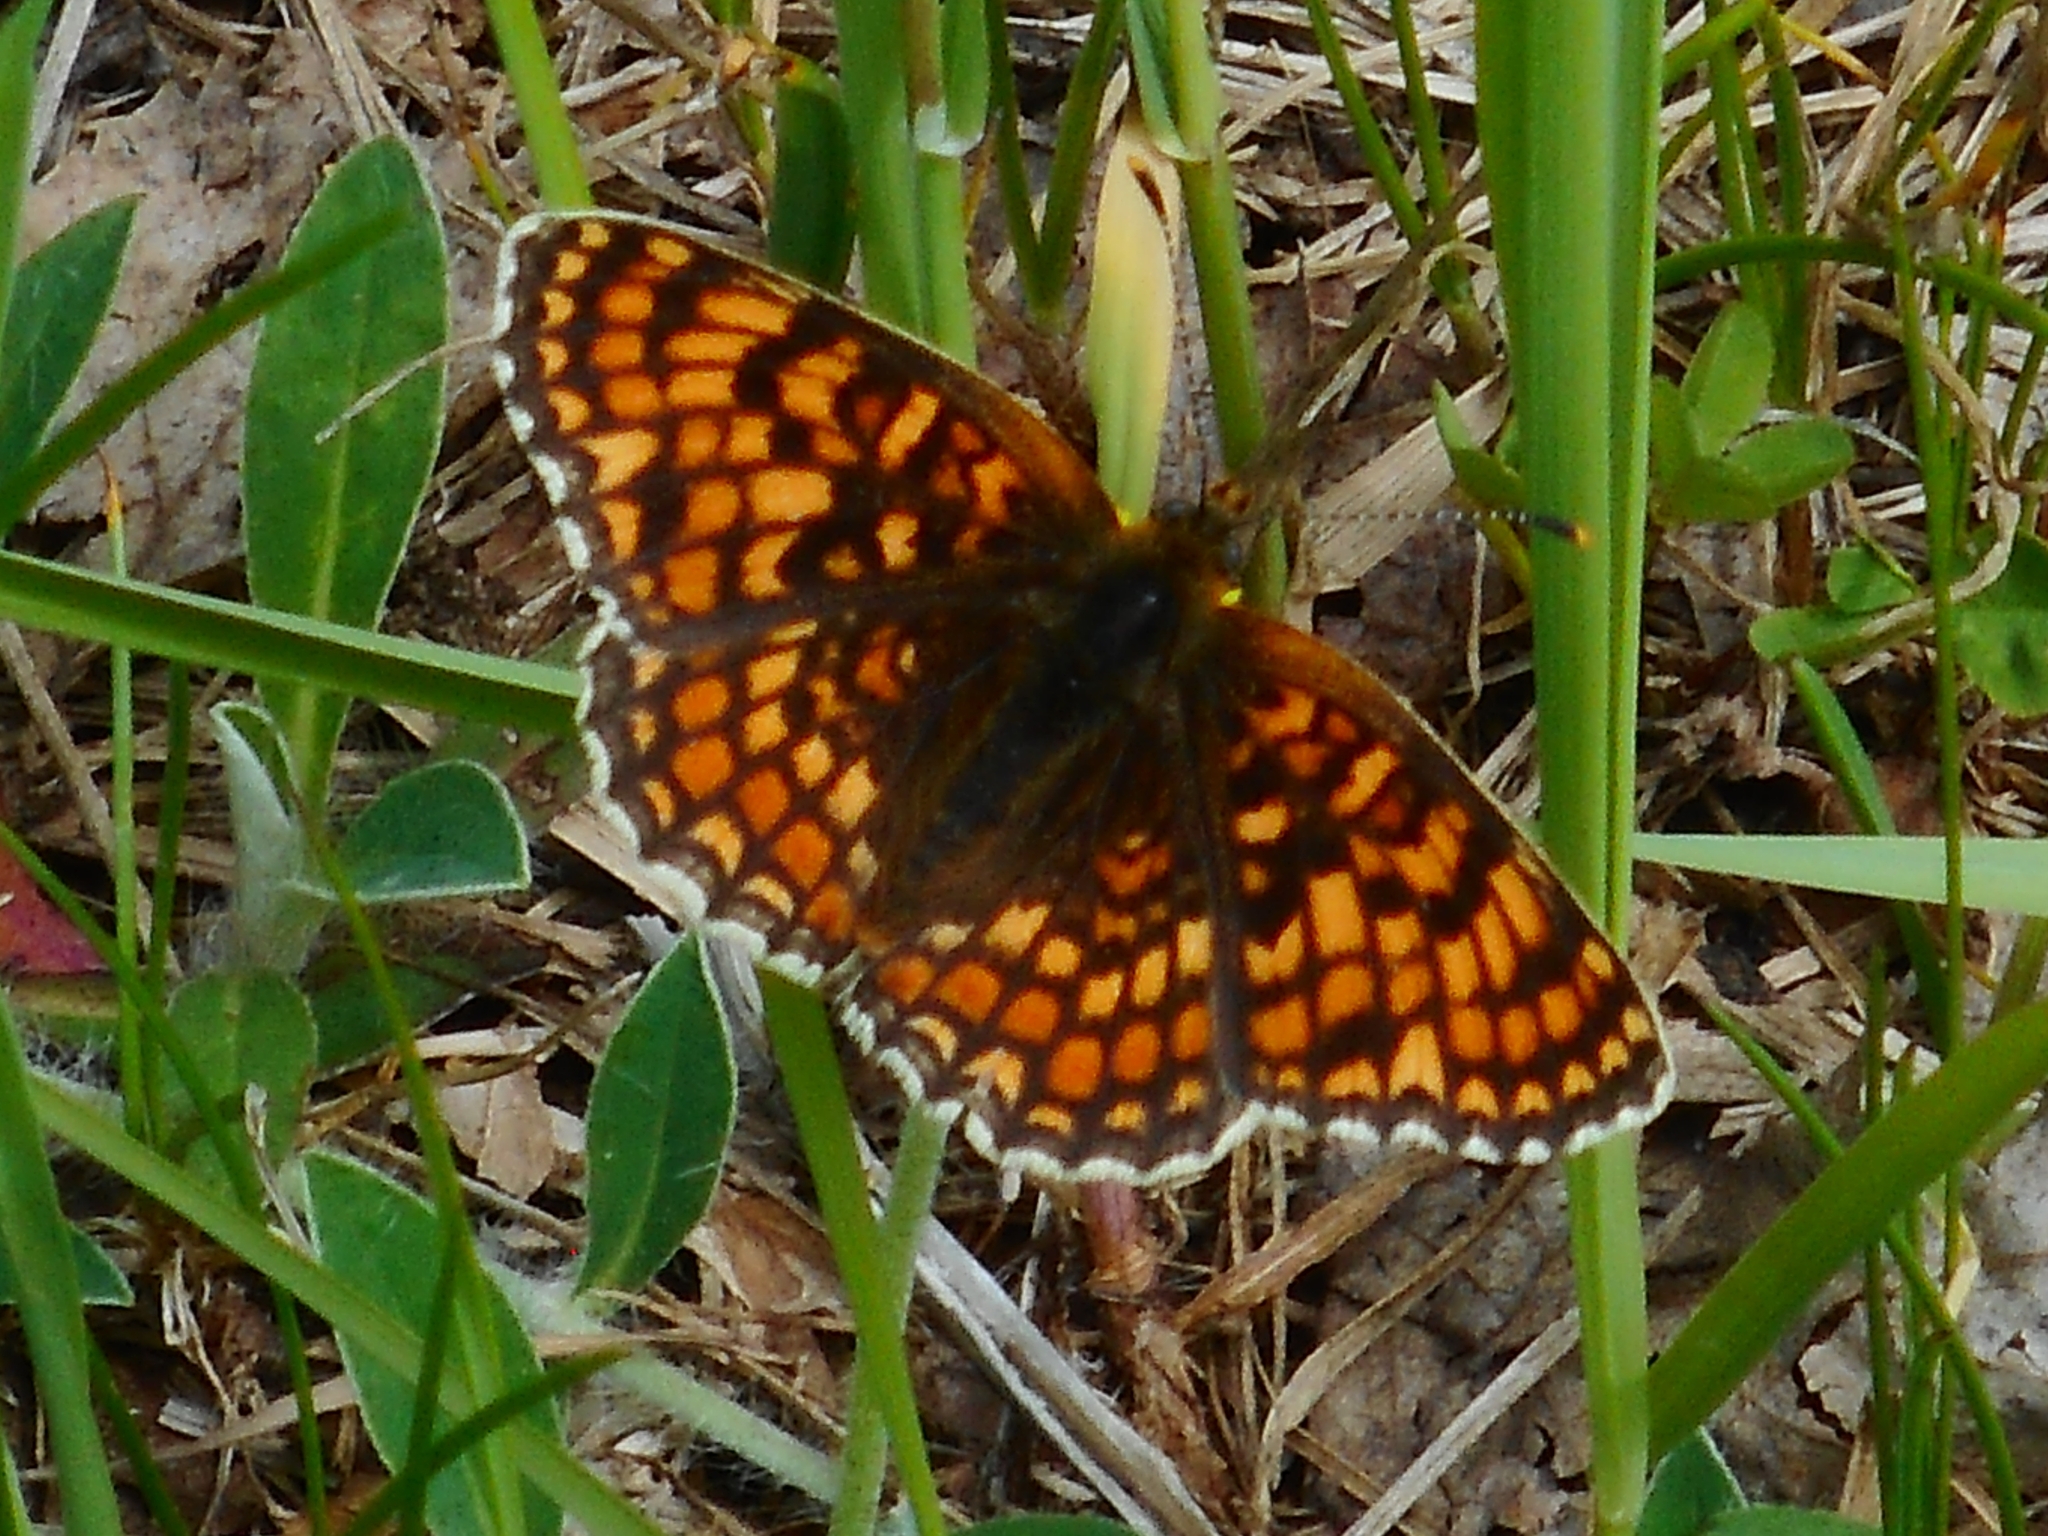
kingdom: Animalia
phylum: Arthropoda
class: Insecta
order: Lepidoptera
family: Nymphalidae
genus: Melitaea
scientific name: Melitaea phoebe
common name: Knapweed fritillary
